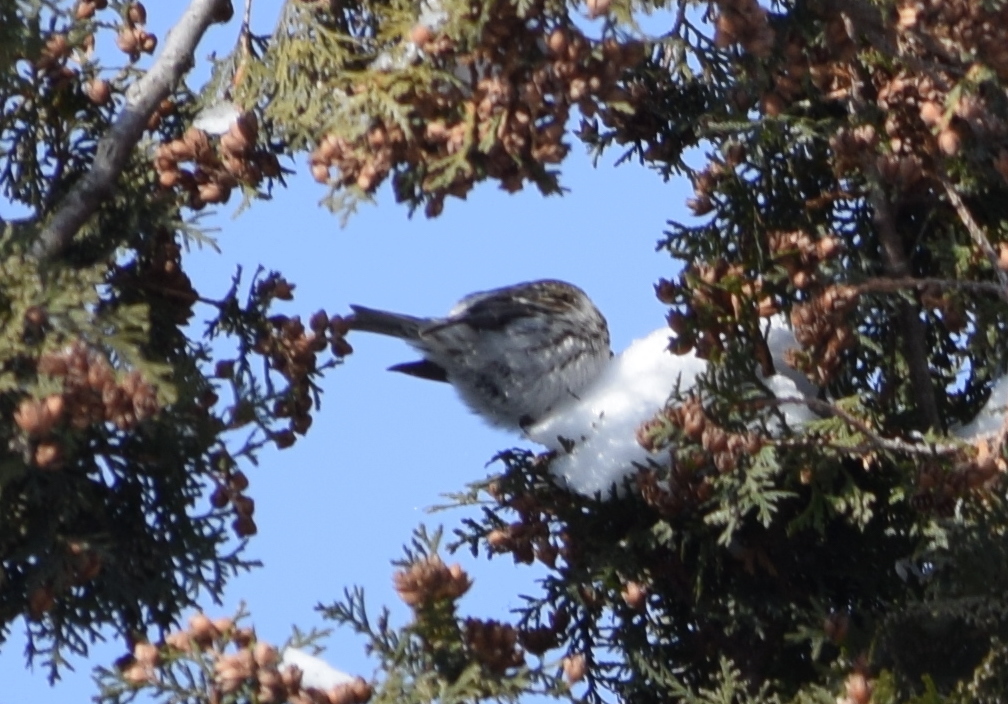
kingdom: Animalia
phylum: Chordata
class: Aves
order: Passeriformes
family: Fringillidae
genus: Acanthis
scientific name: Acanthis flammea
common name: Common redpoll
